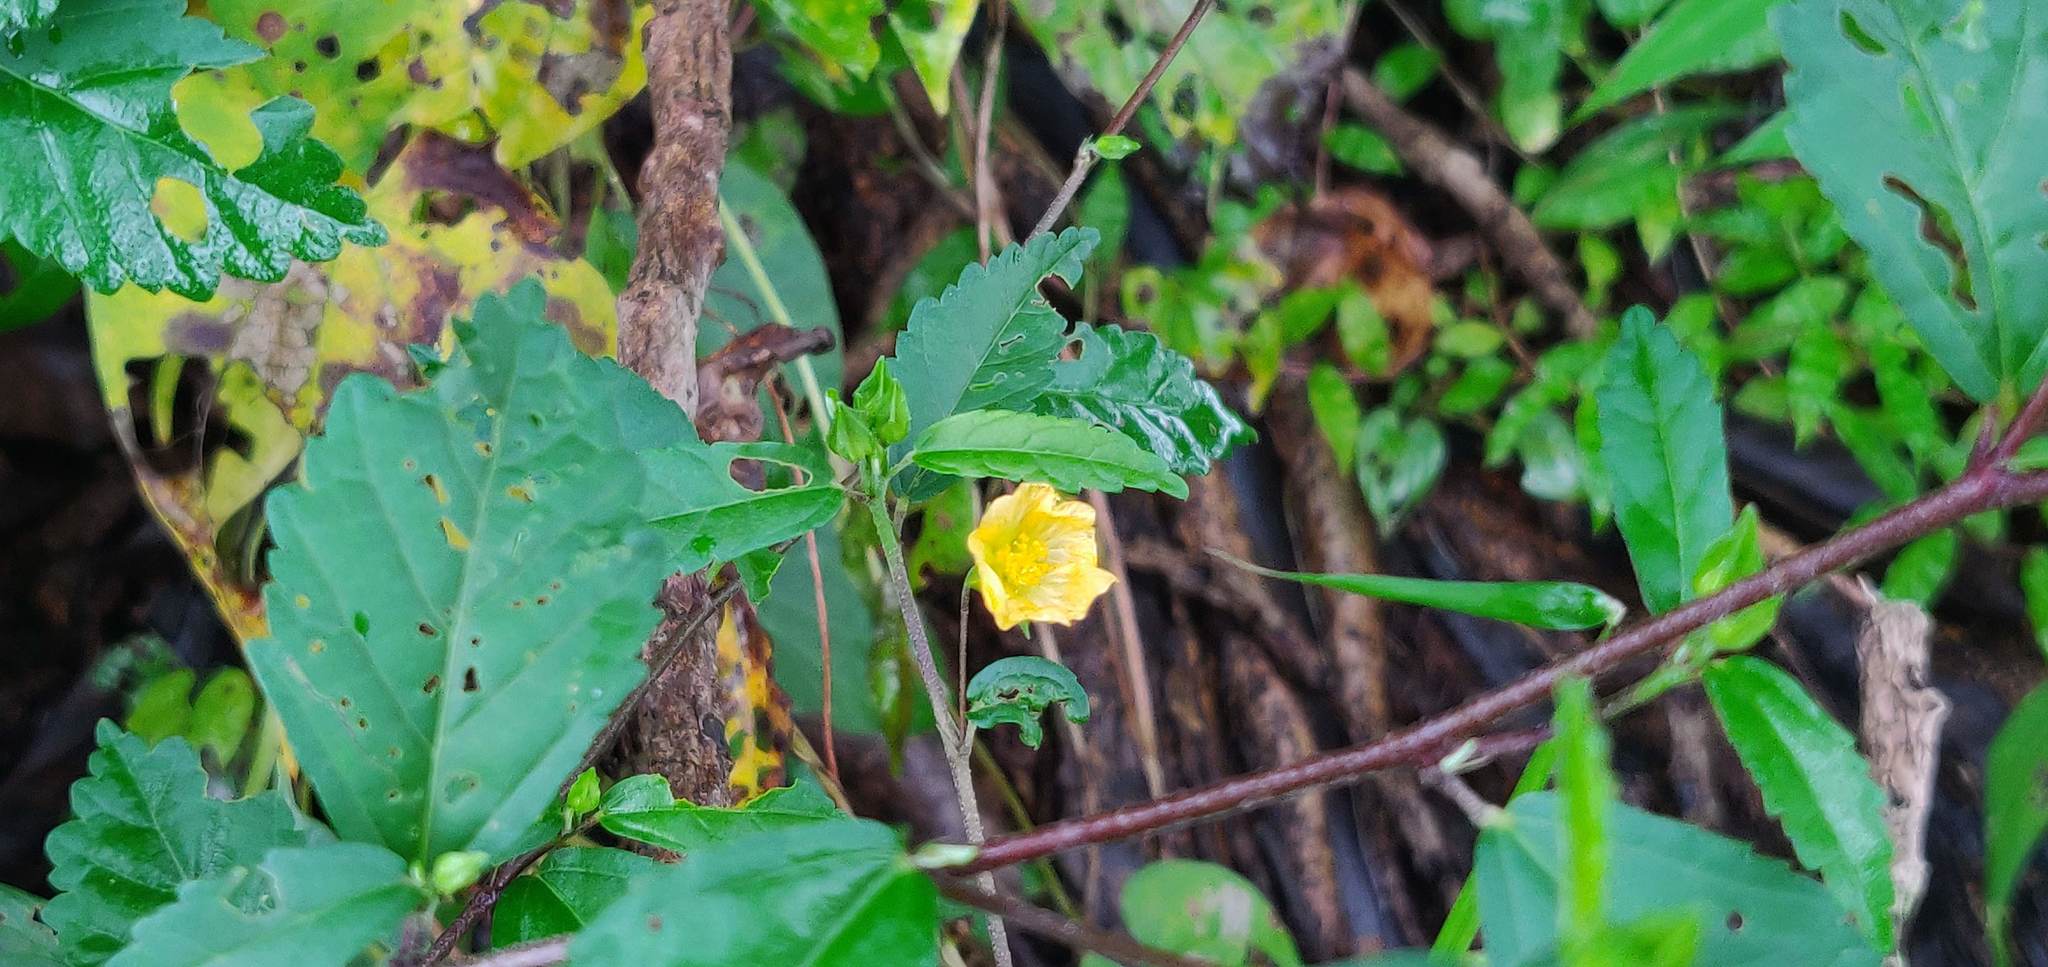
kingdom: Plantae
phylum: Tracheophyta
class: Magnoliopsida
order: Malvales
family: Malvaceae
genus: Sida
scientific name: Sida rhombifolia
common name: Queensland-hemp
